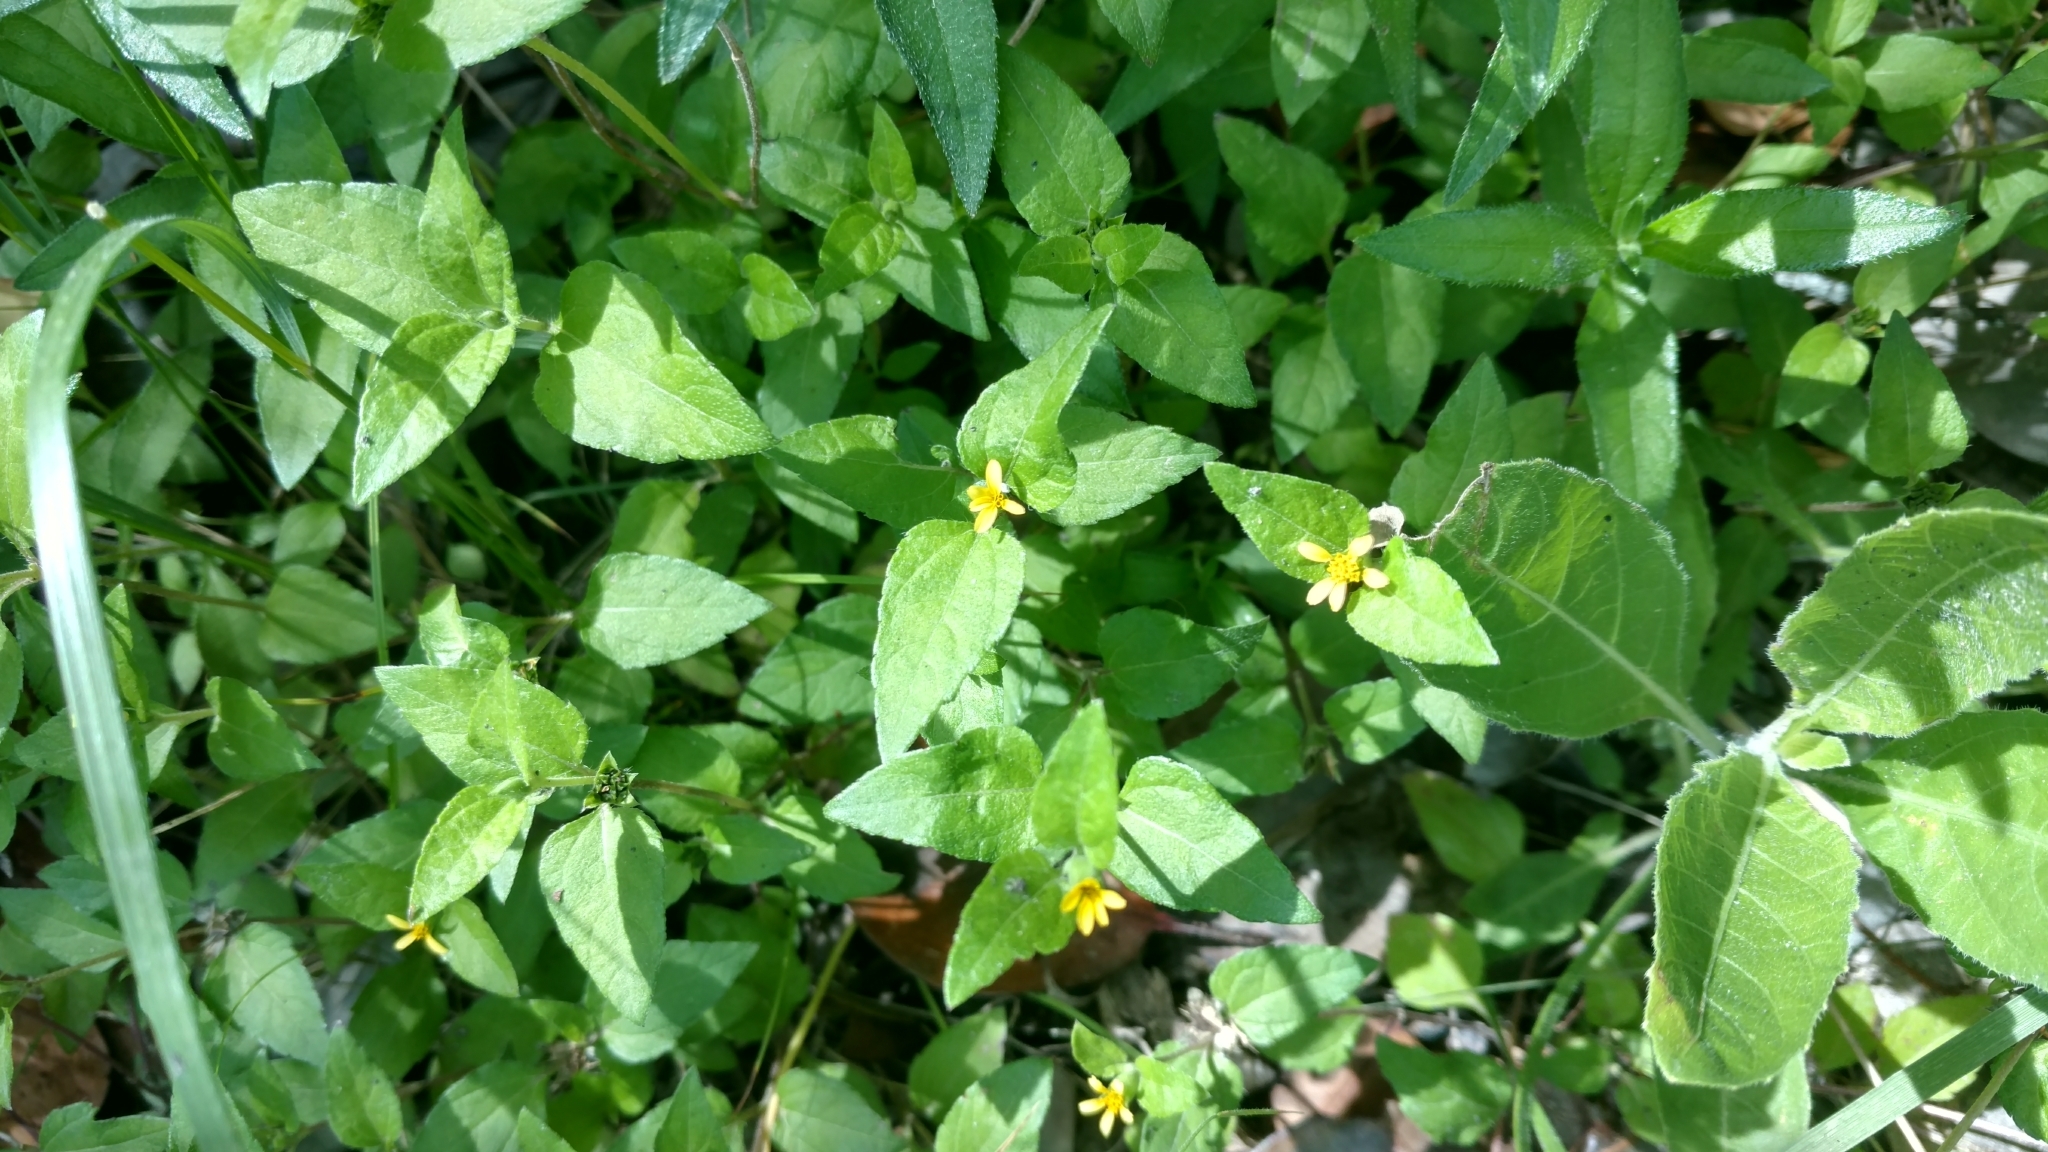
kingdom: Plantae
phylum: Tracheophyta
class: Magnoliopsida
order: Asterales
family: Asteraceae
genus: Calyptocarpus
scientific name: Calyptocarpus vialis
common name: Straggler daisy
